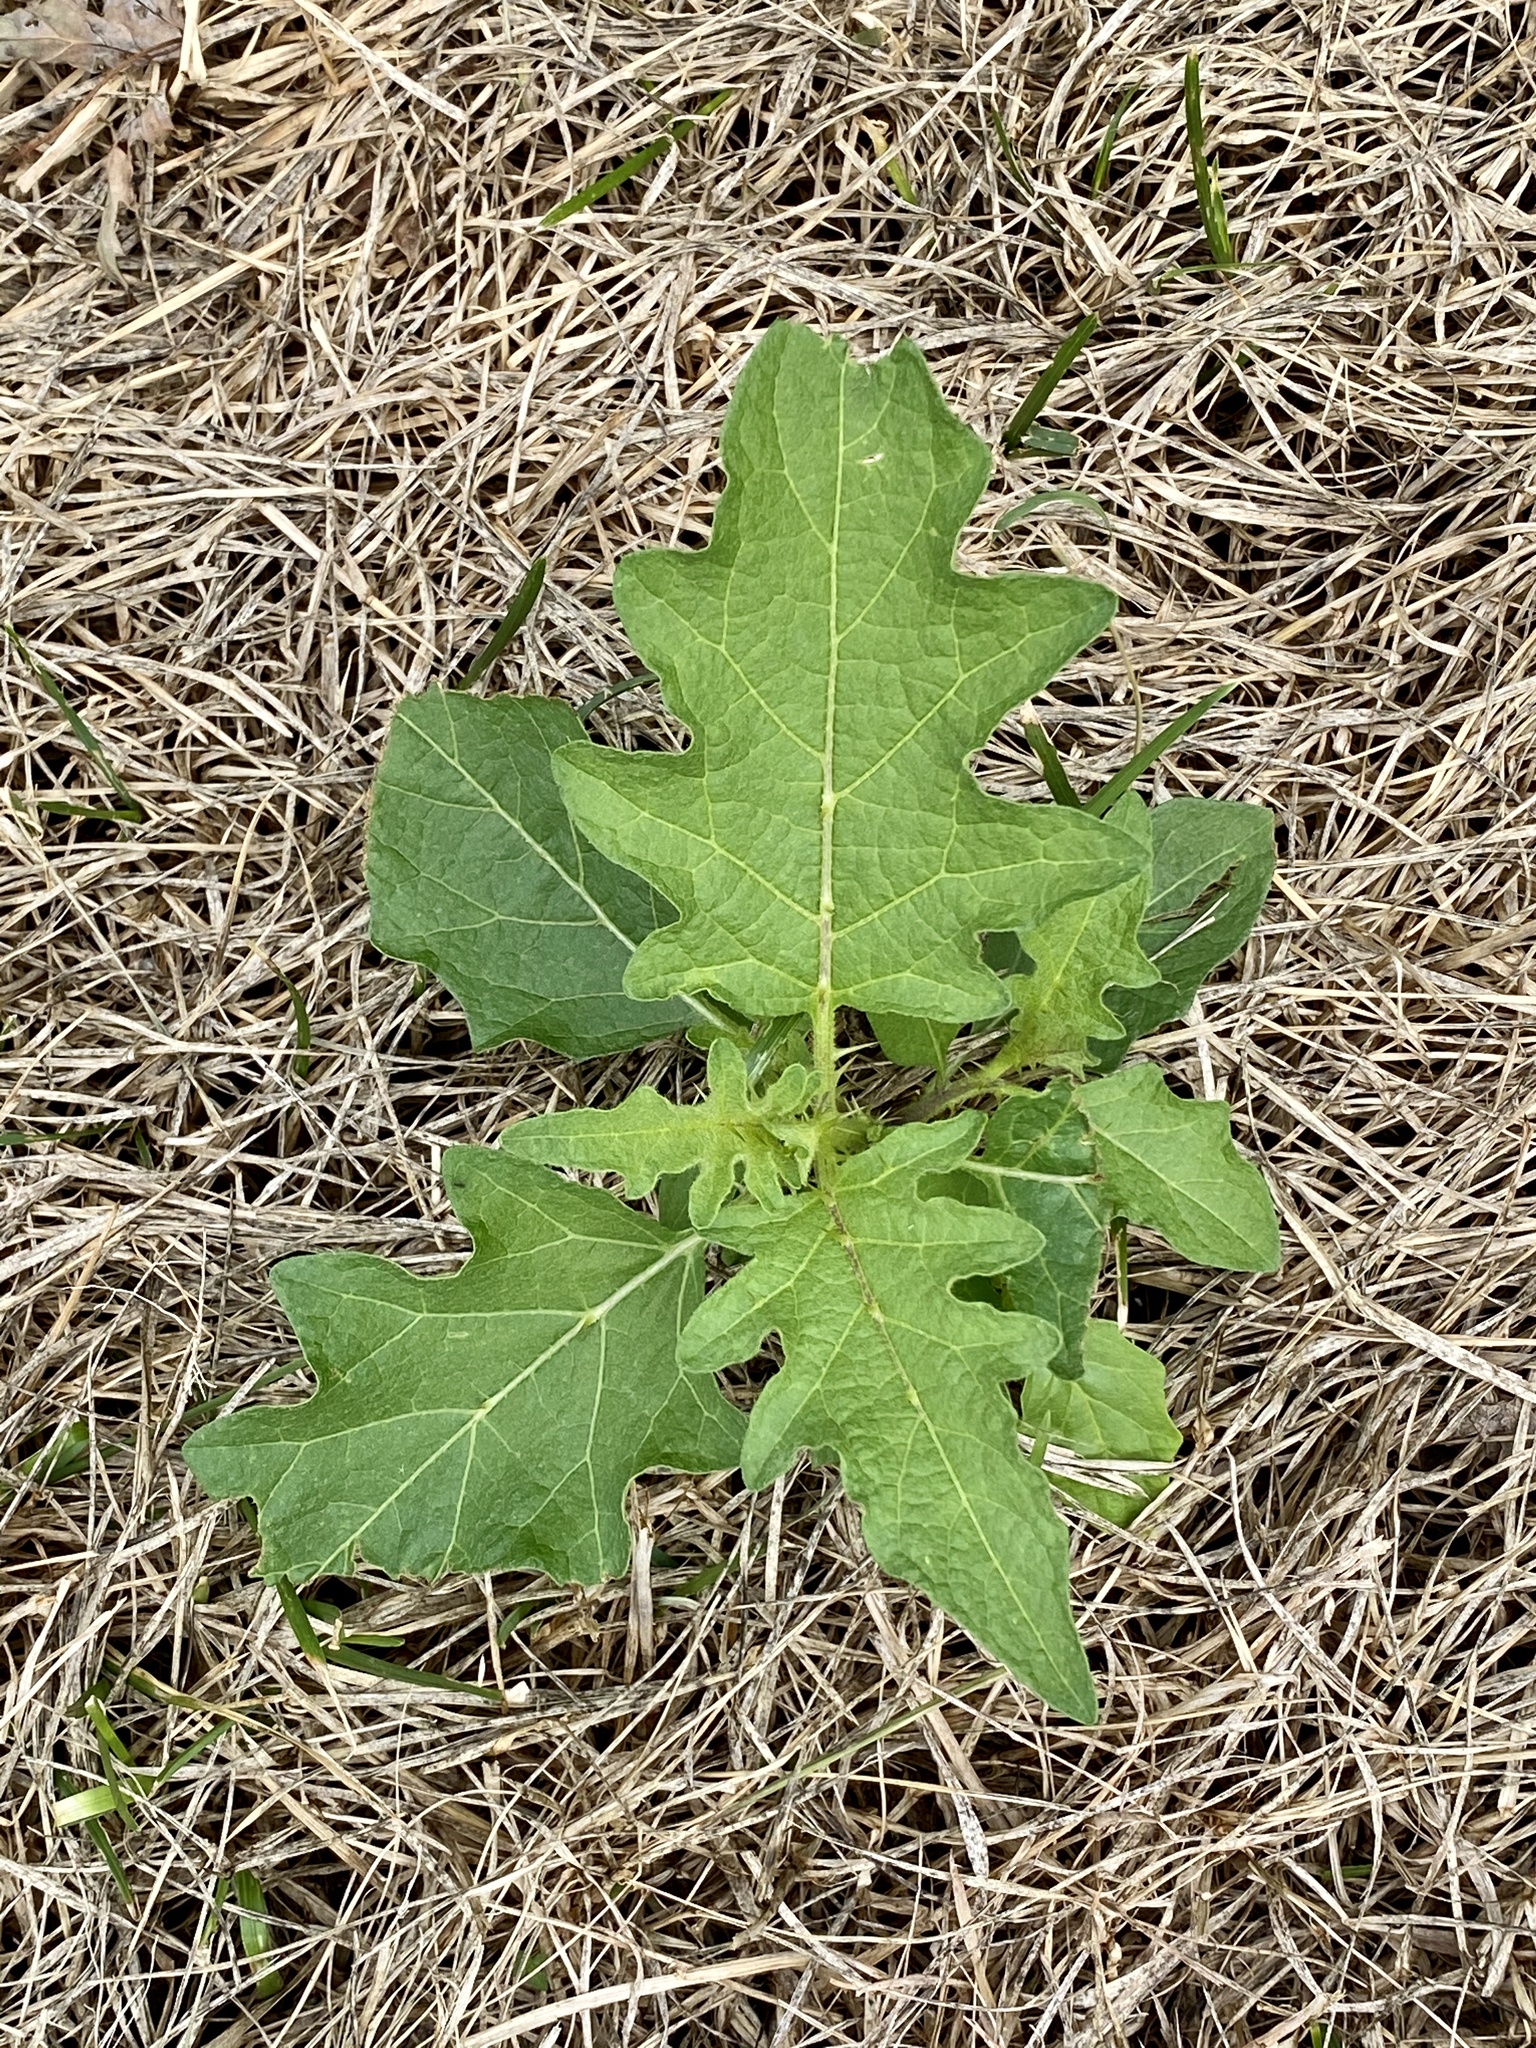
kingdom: Plantae
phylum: Tracheophyta
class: Magnoliopsida
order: Solanales
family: Solanaceae
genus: Solanum
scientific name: Solanum carolinense
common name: Horse-nettle
